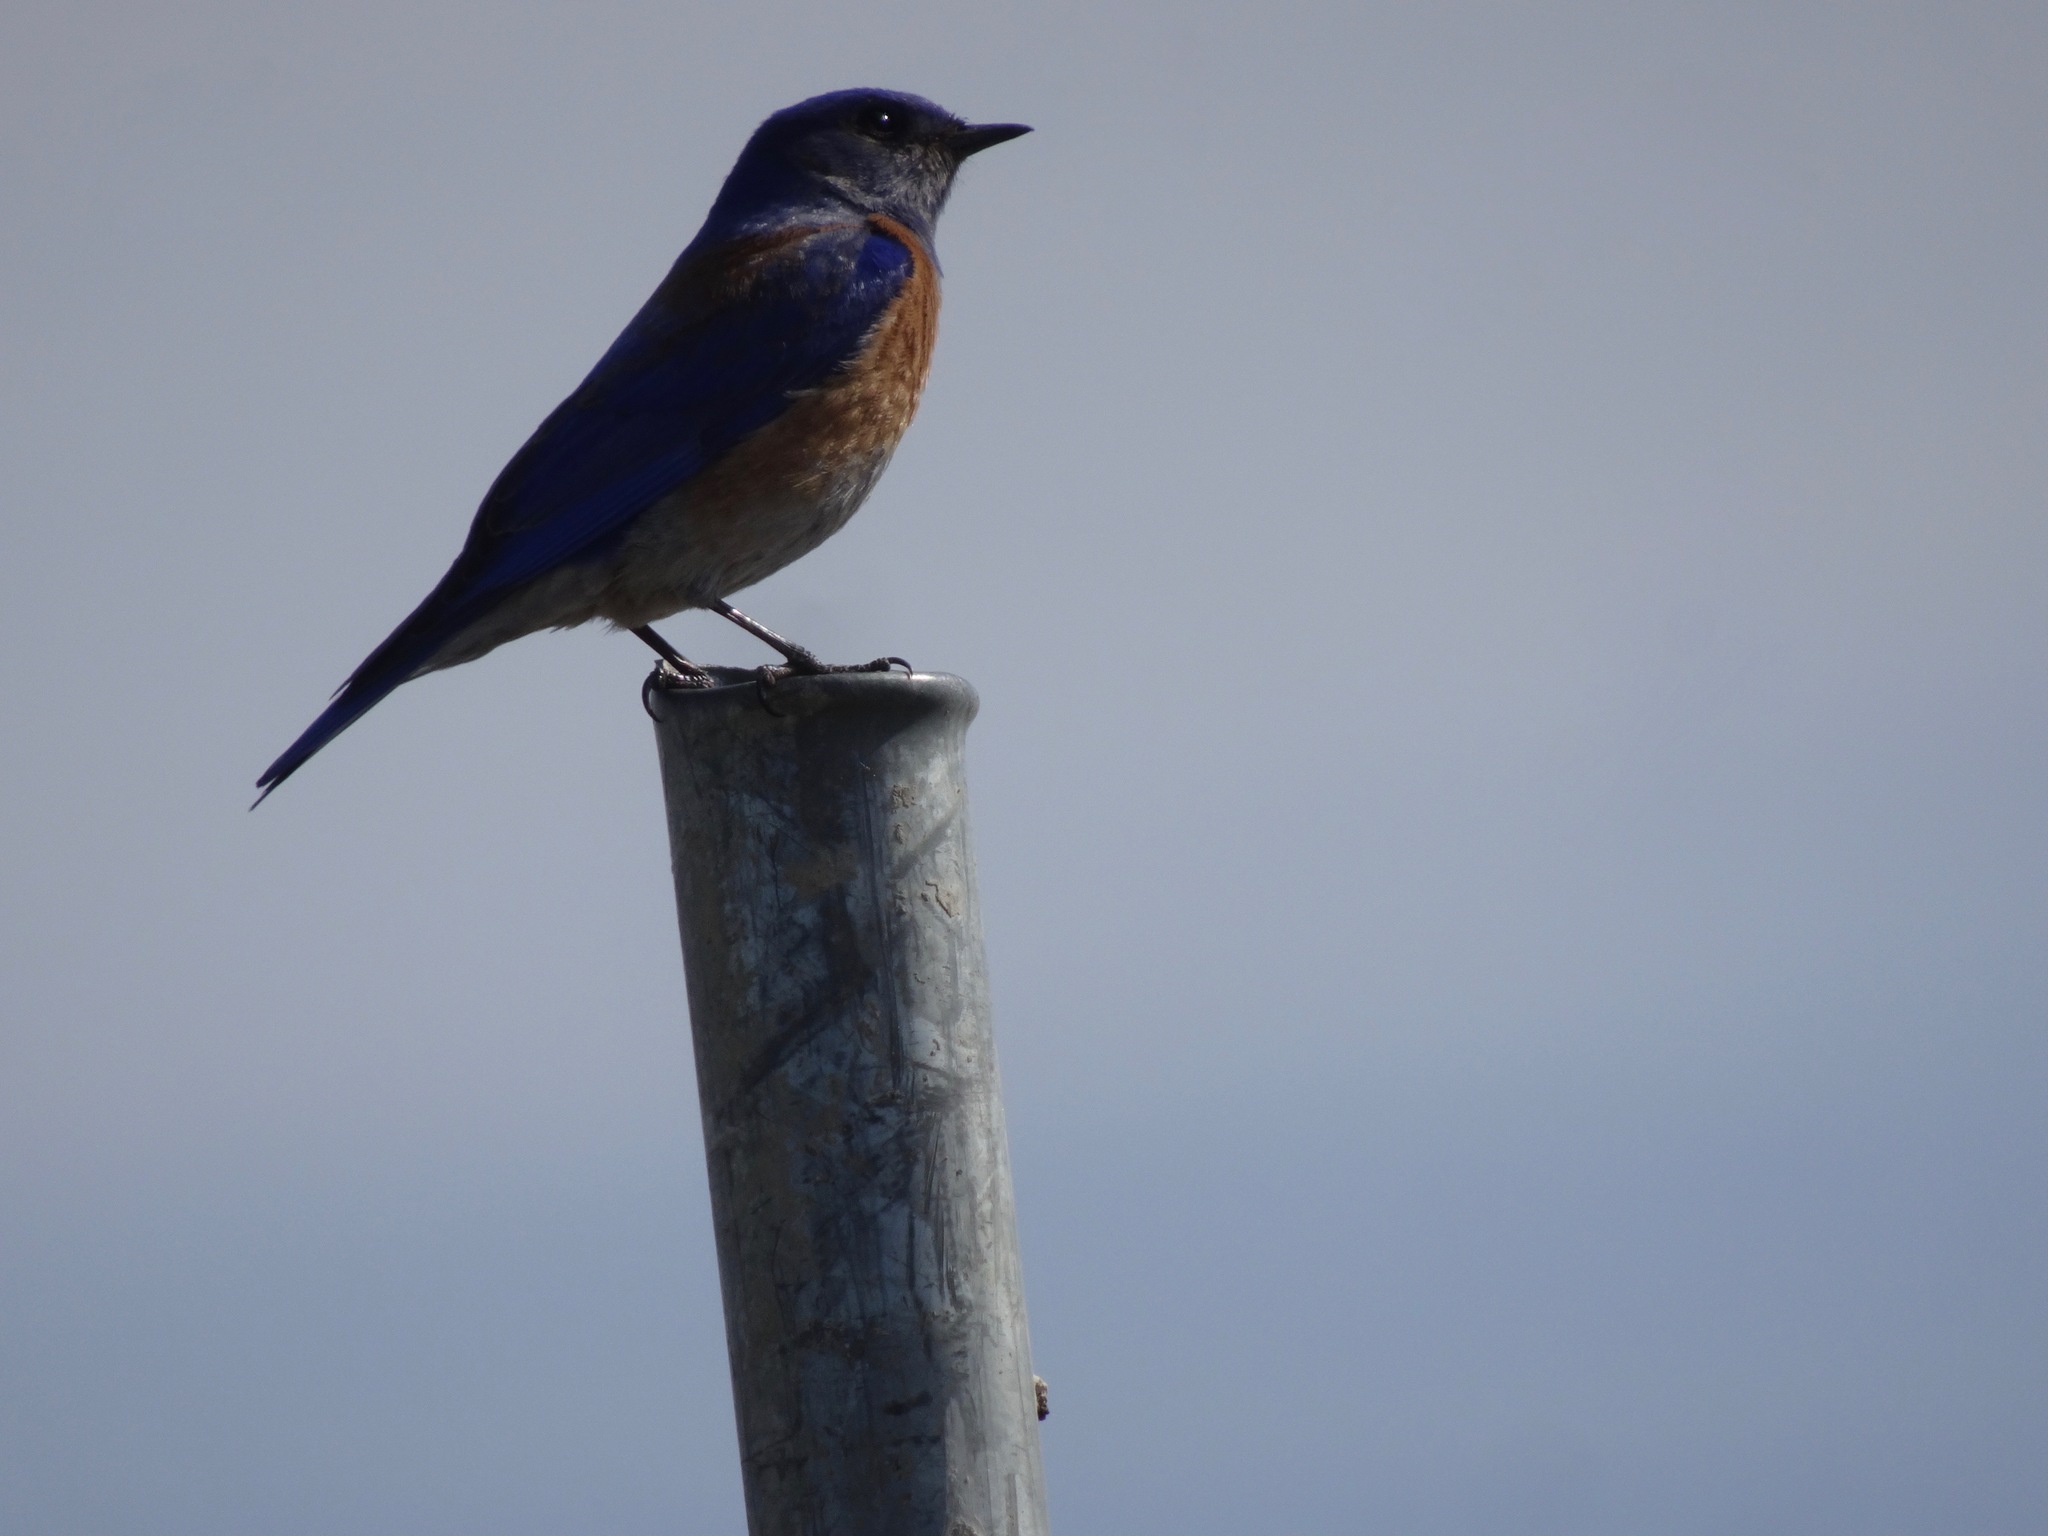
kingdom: Animalia
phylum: Chordata
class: Aves
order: Passeriformes
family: Turdidae
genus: Sialia
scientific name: Sialia mexicana
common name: Western bluebird
